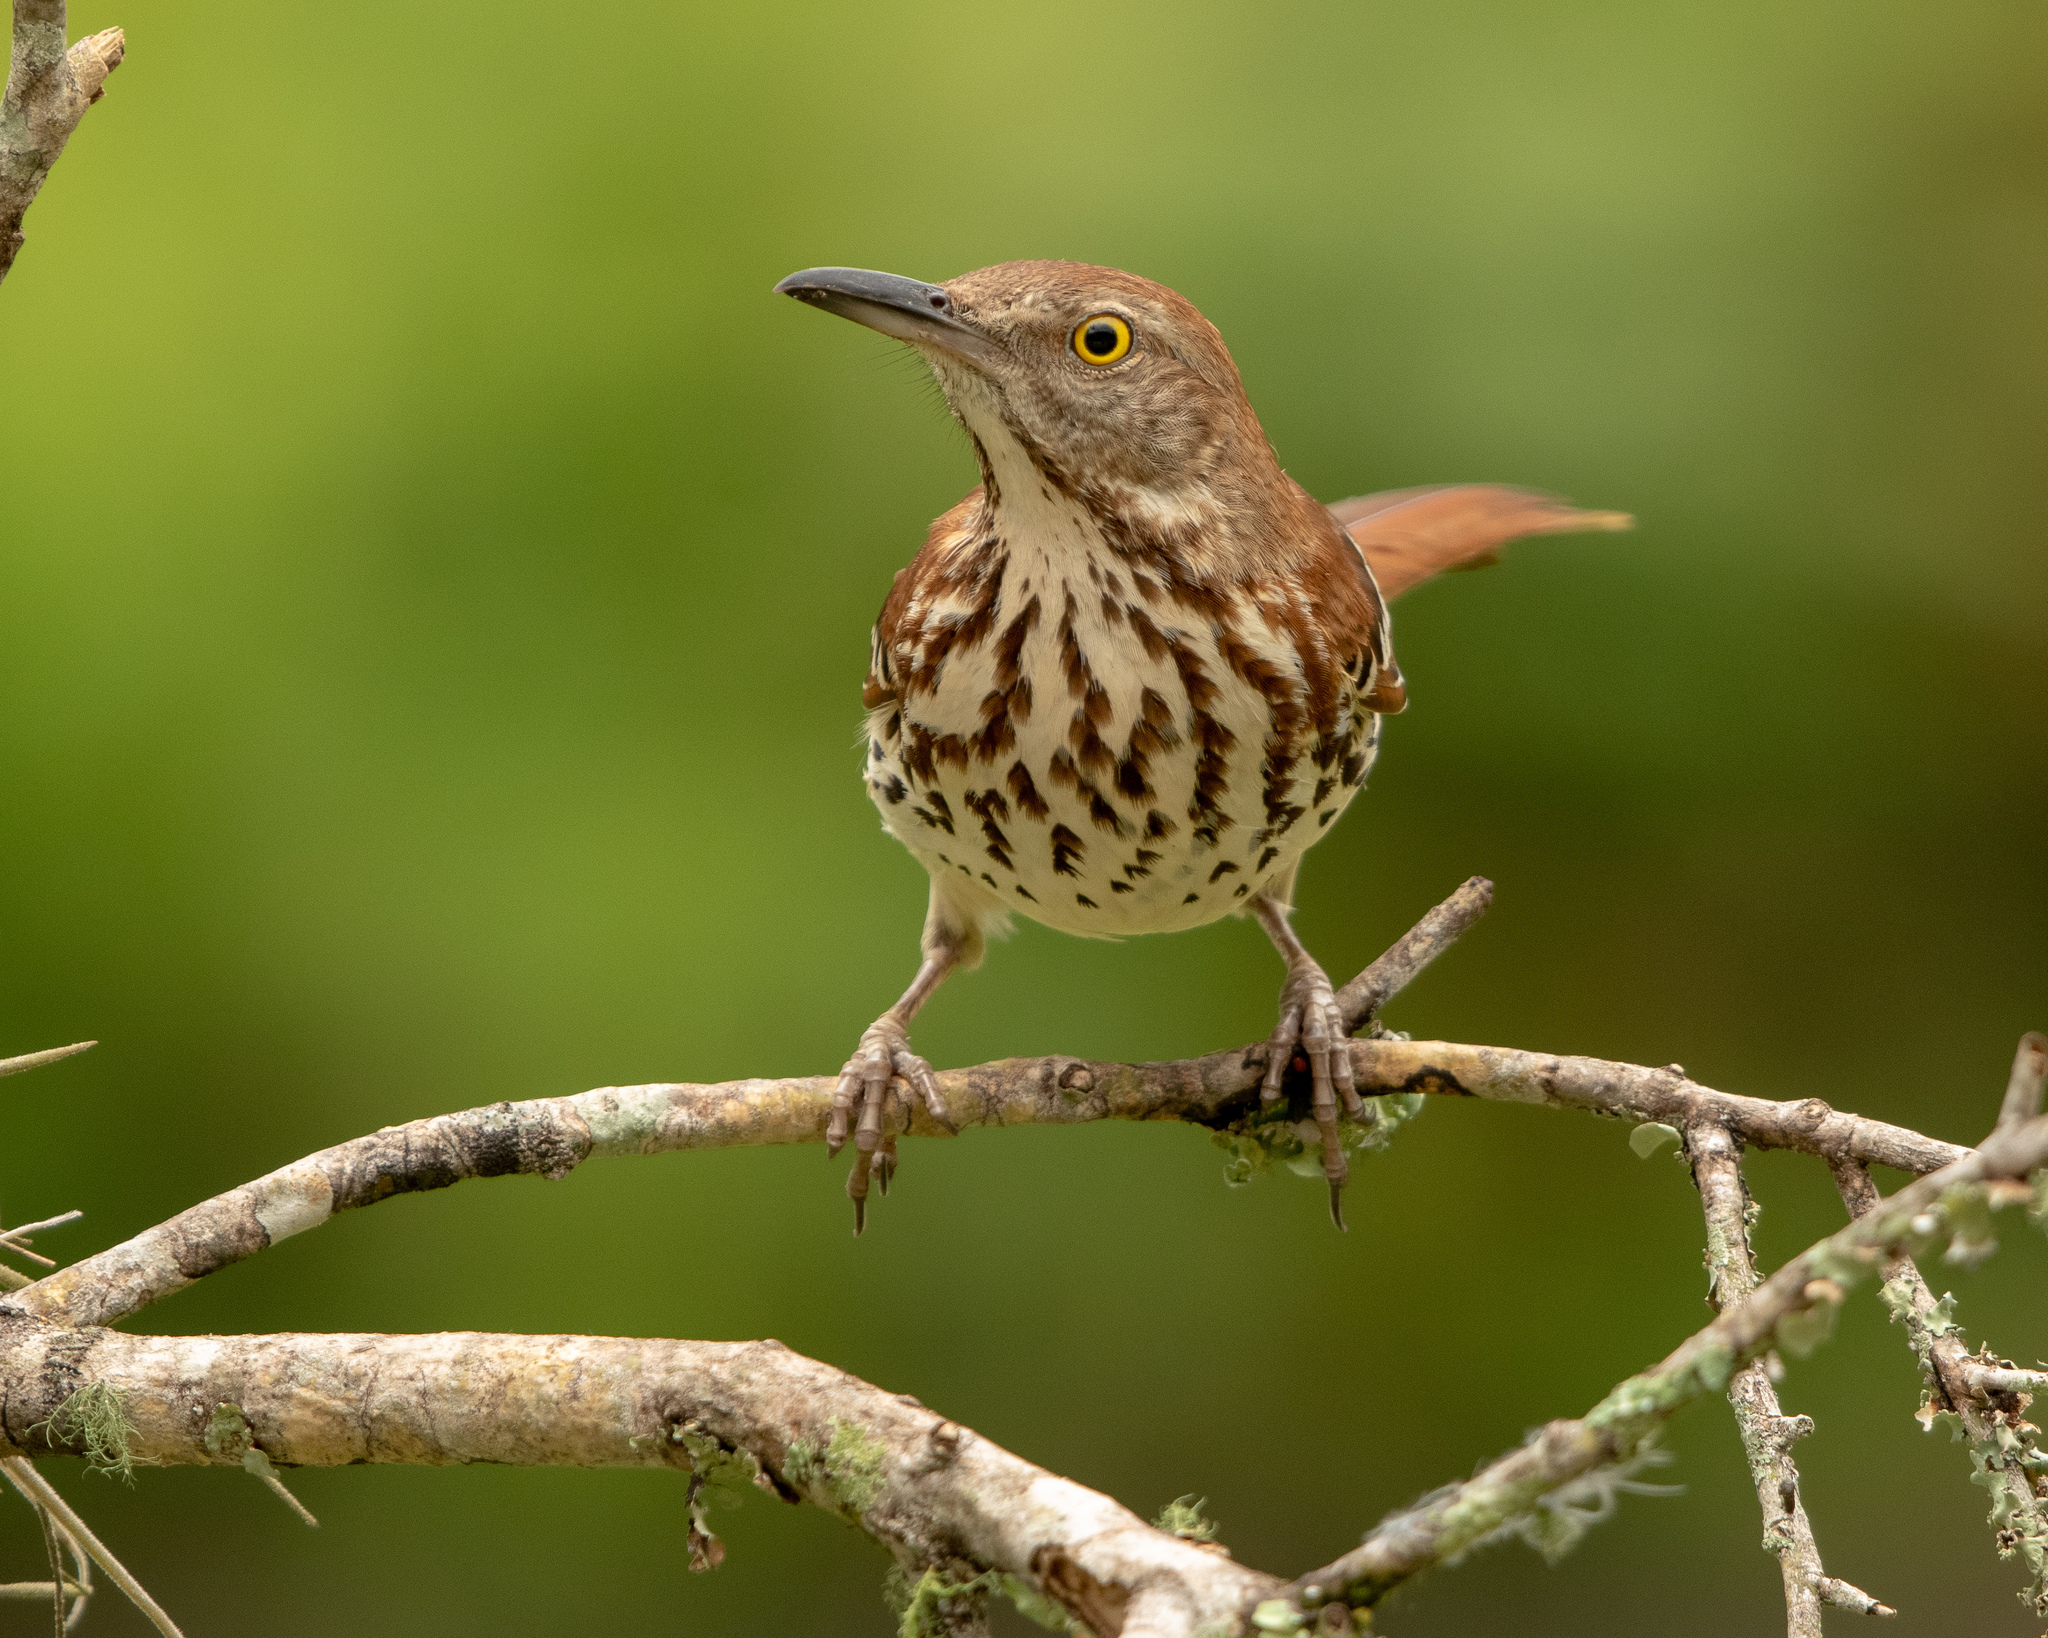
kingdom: Animalia
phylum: Chordata
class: Aves
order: Passeriformes
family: Mimidae
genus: Toxostoma
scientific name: Toxostoma rufum
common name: Brown thrasher
